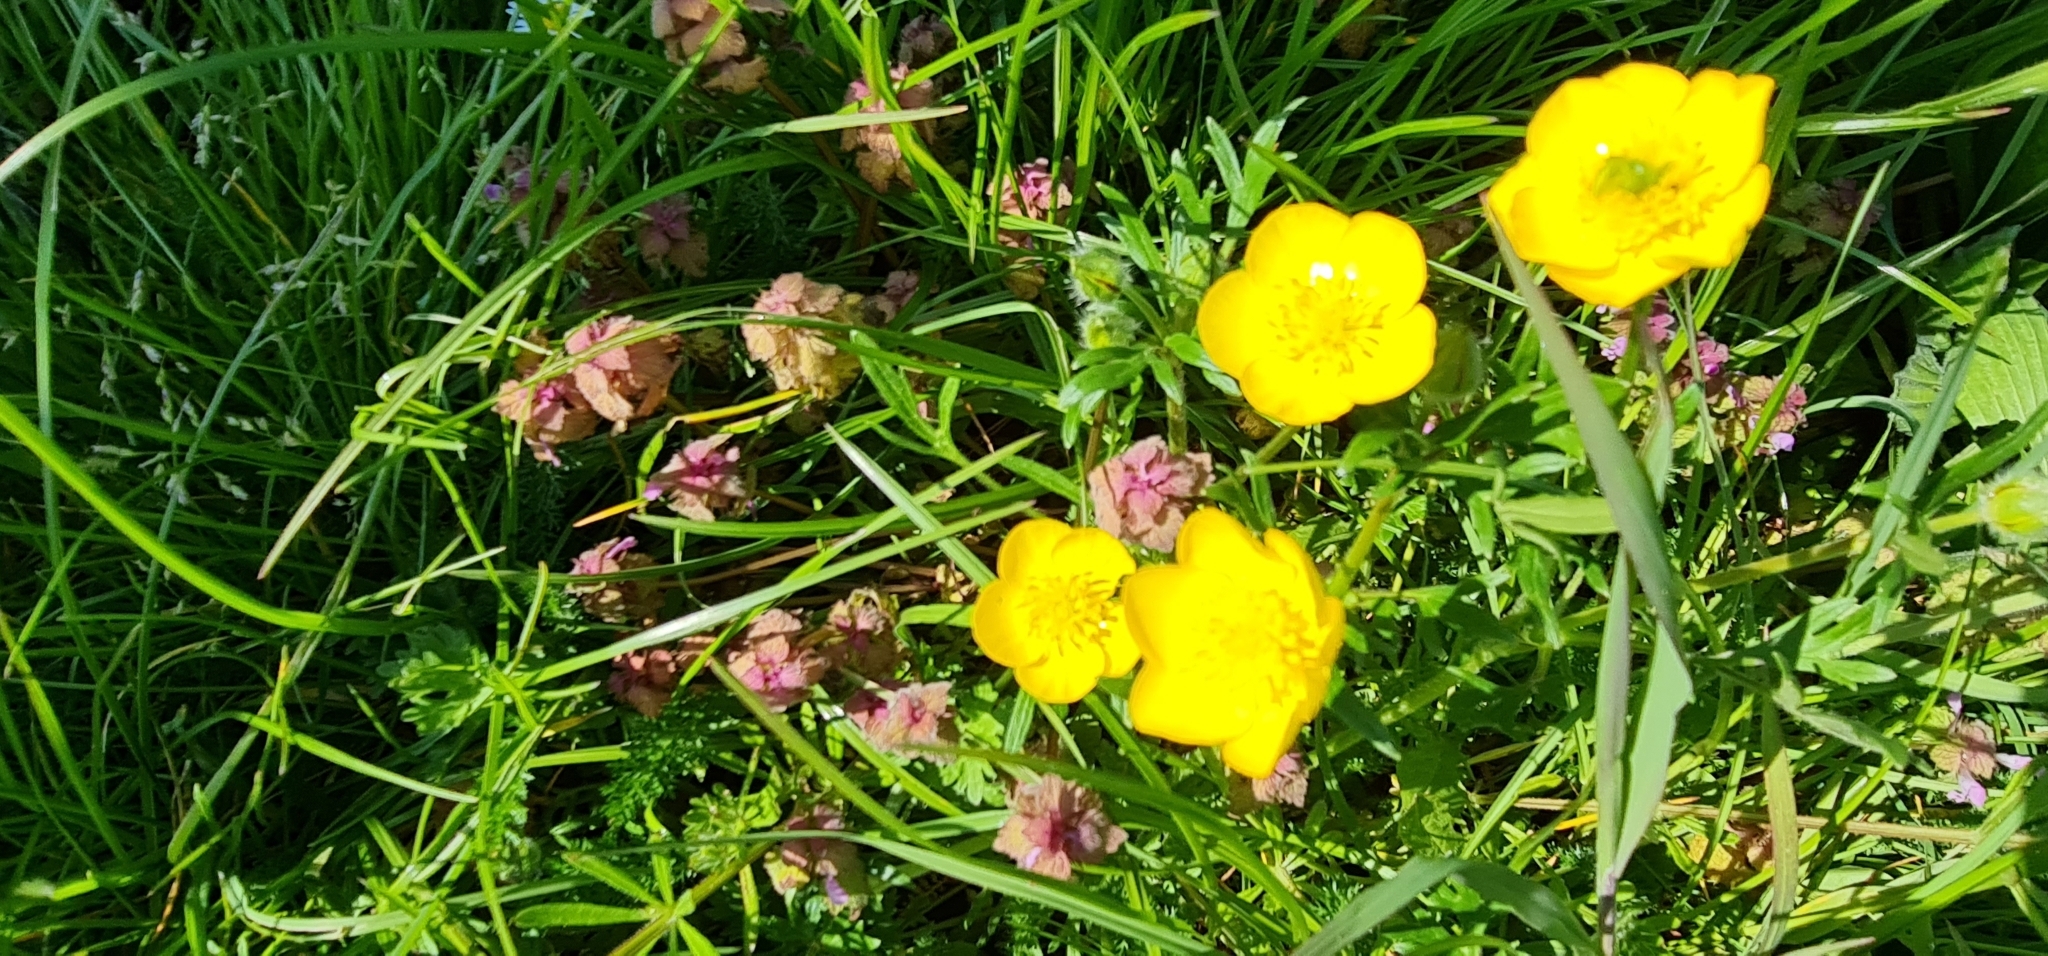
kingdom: Plantae
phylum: Tracheophyta
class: Magnoliopsida
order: Ranunculales
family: Ranunculaceae
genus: Ranunculus
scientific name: Ranunculus acris
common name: Meadow buttercup
